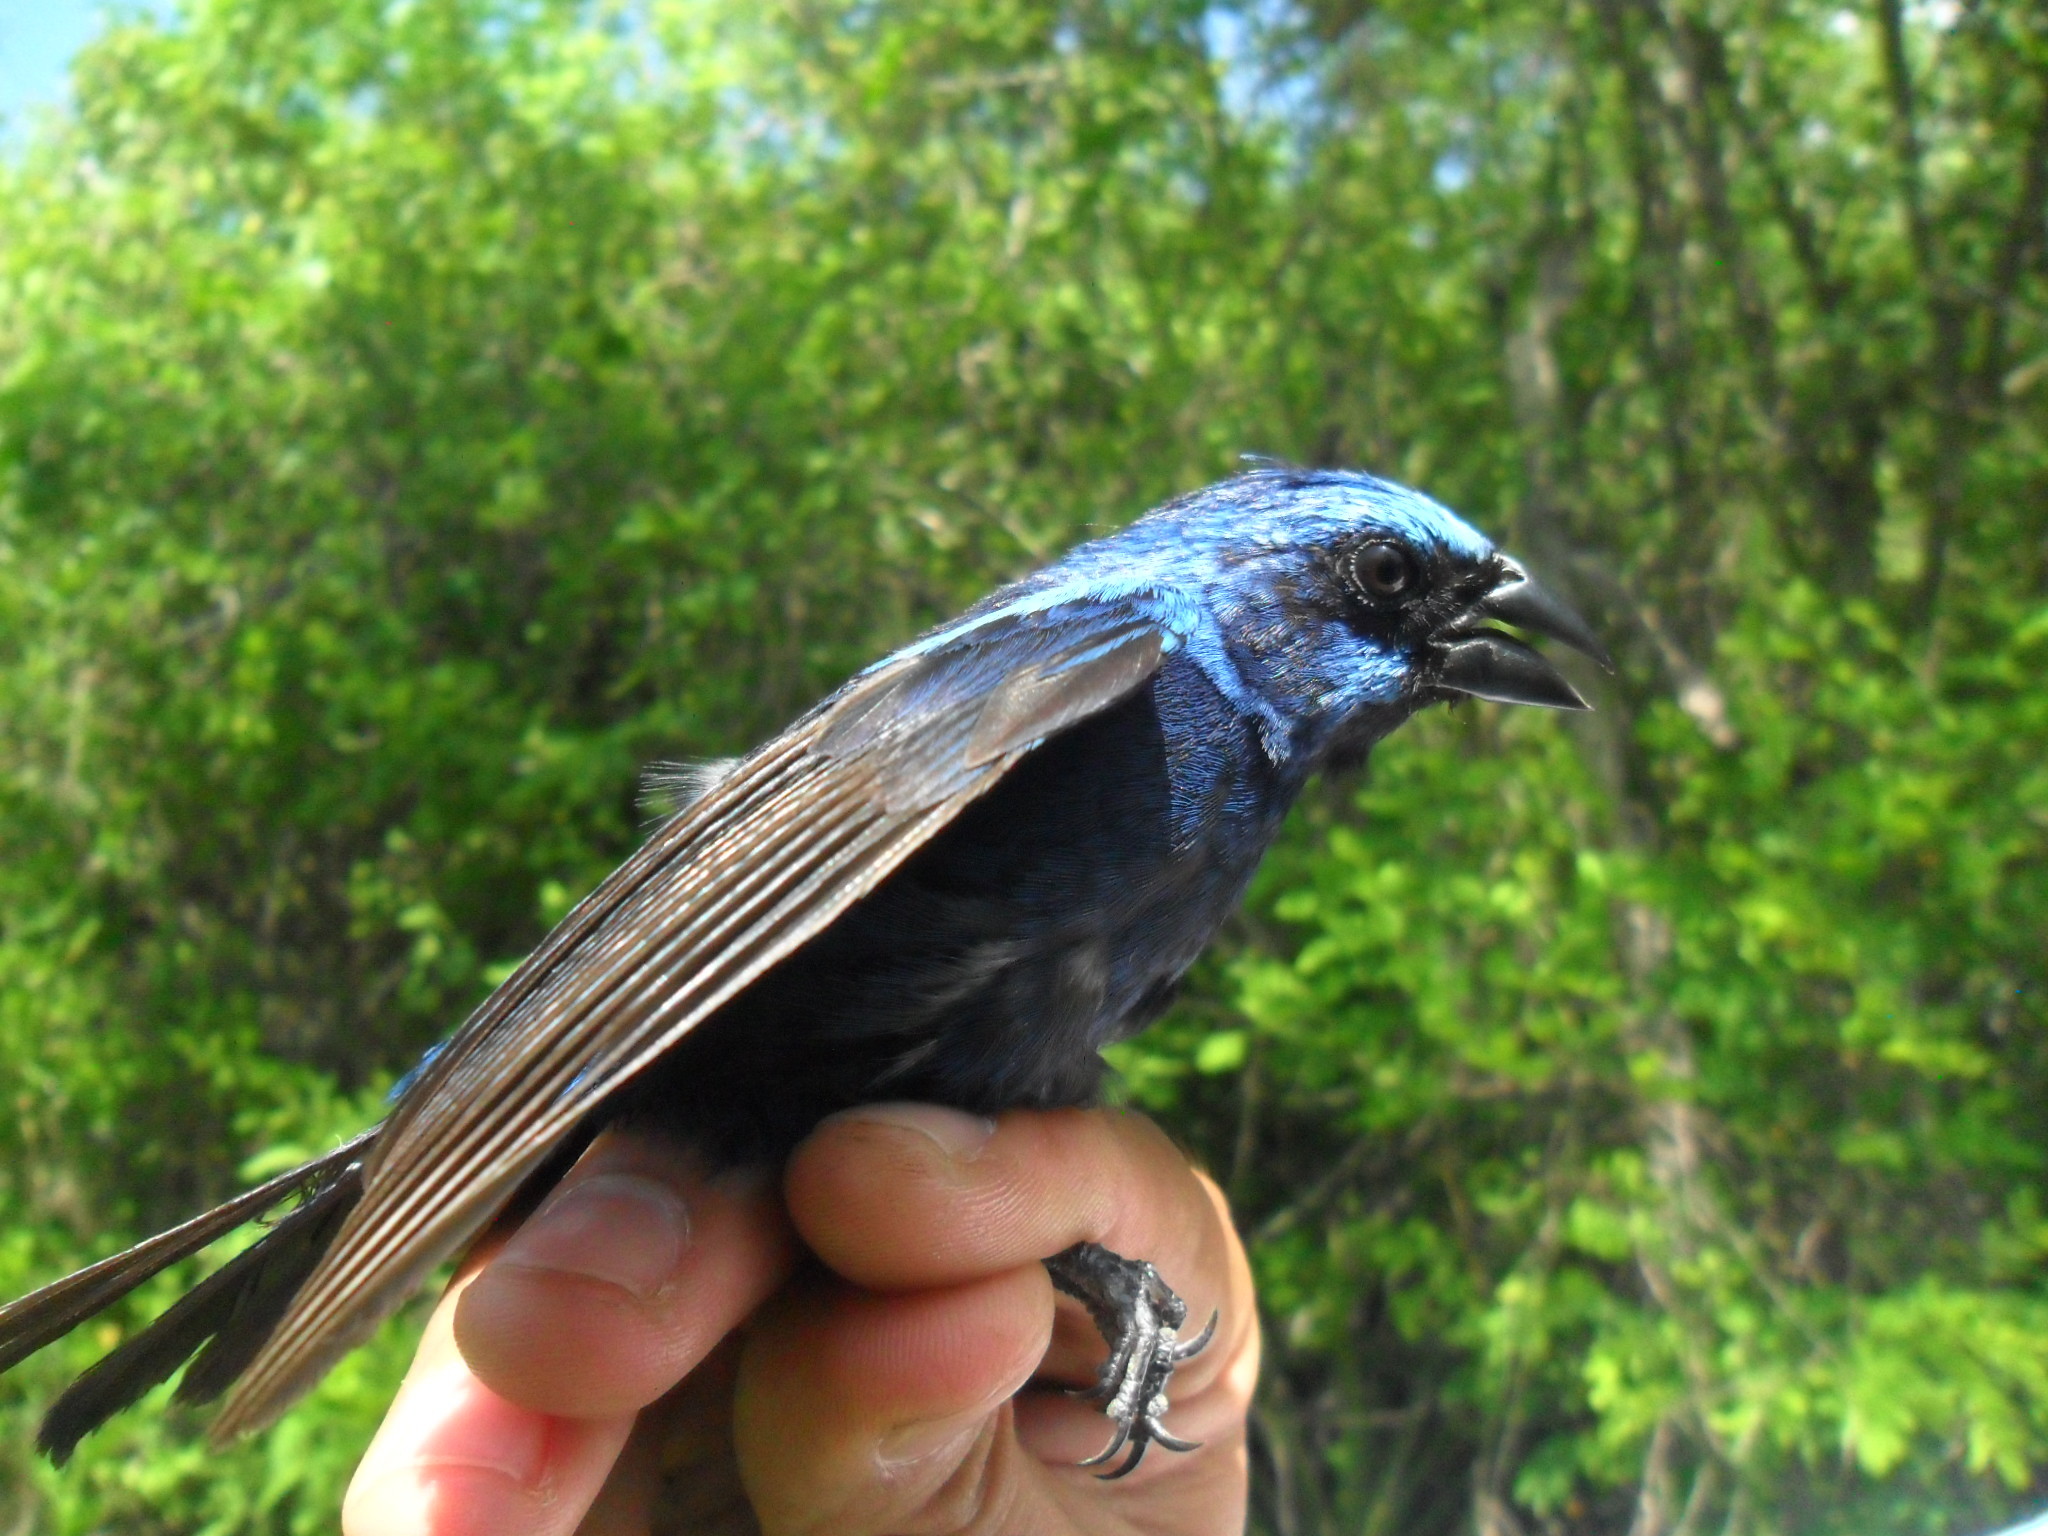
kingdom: Animalia
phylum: Chordata
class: Aves
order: Passeriformes
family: Cardinalidae
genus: Cyanocompsa
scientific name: Cyanocompsa parellina
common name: Blue bunting
